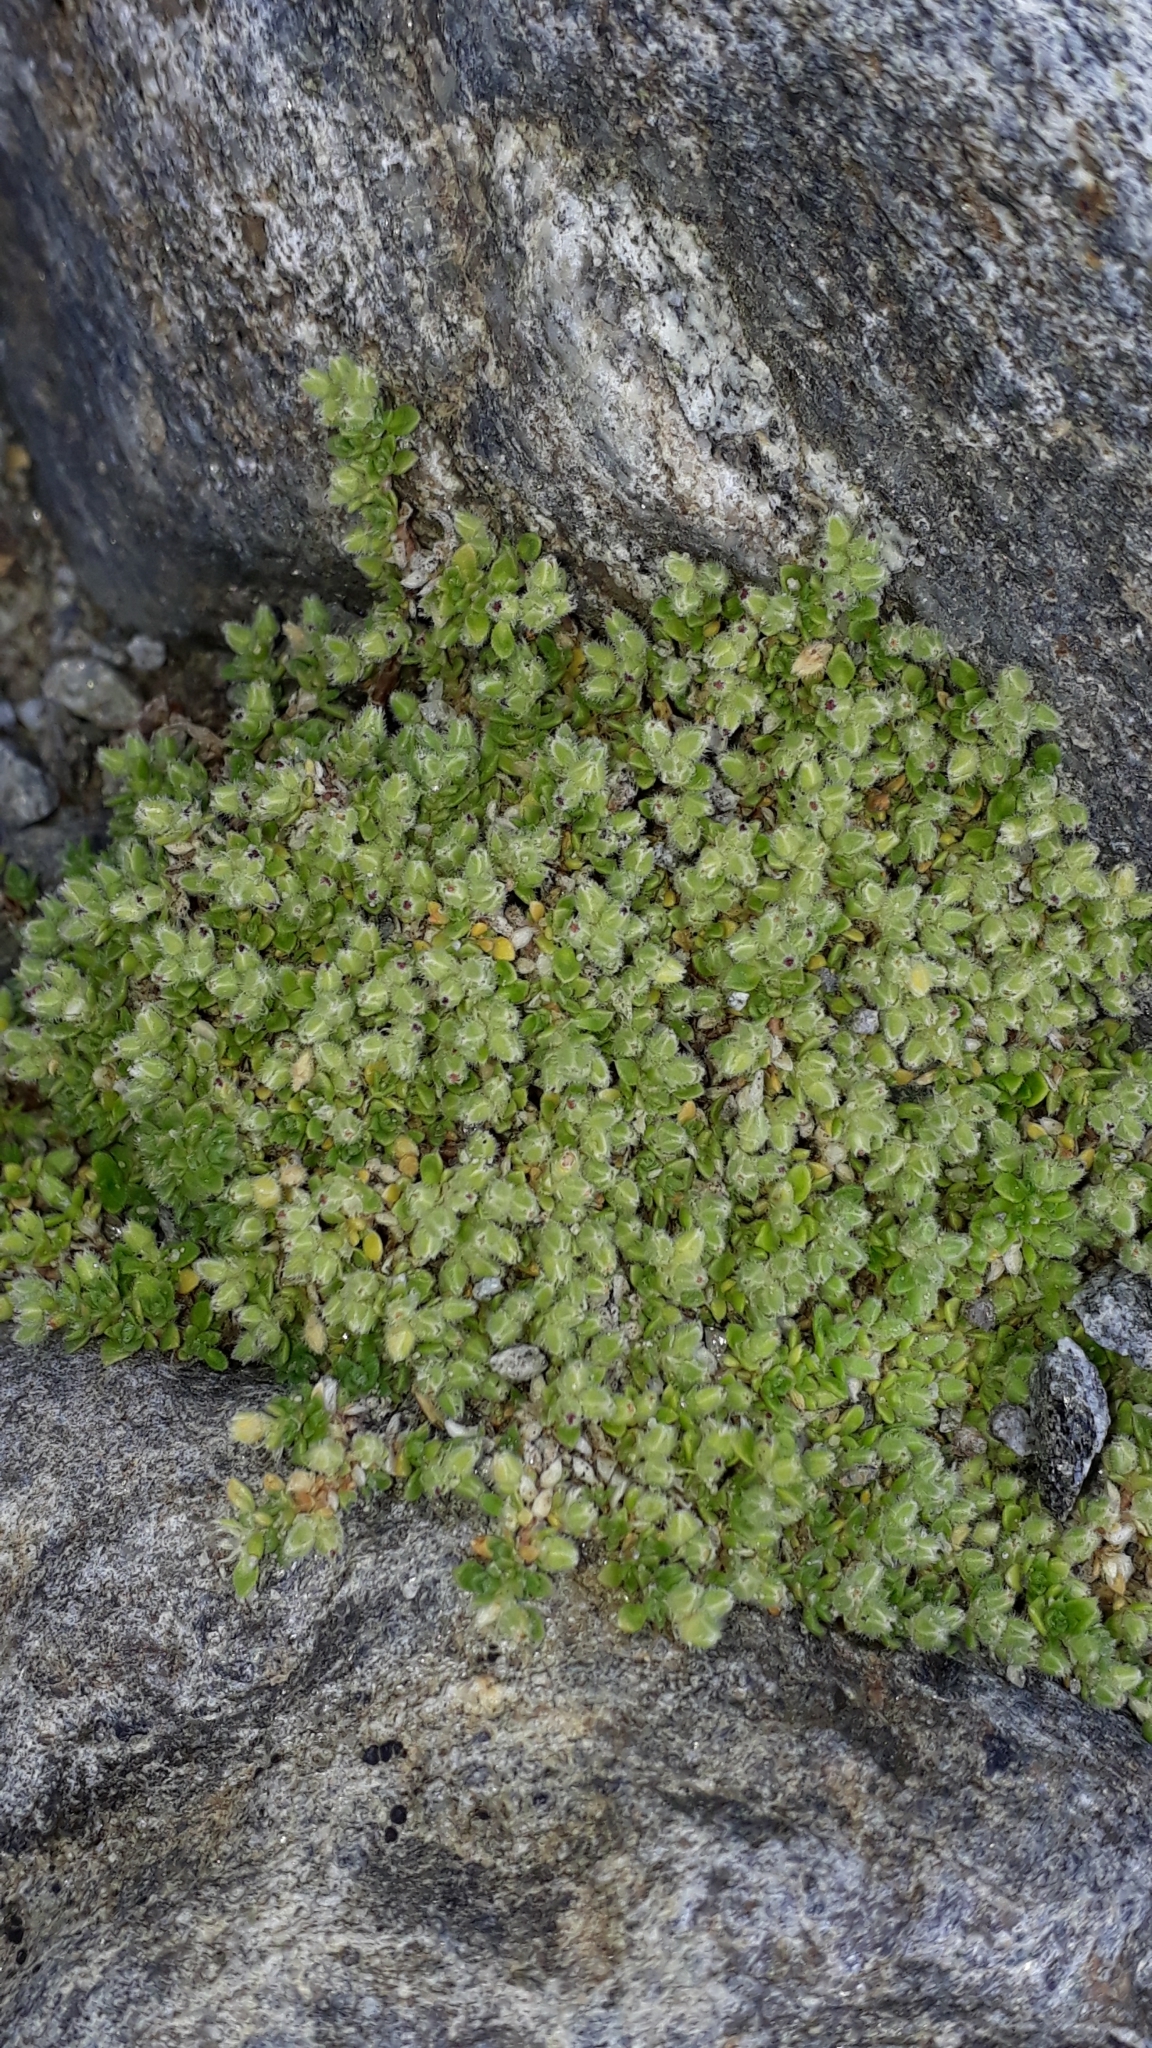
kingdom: Plantae
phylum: Tracheophyta
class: Magnoliopsida
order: Caryophyllales
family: Caryophyllaceae
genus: Herniaria
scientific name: Herniaria alpina
